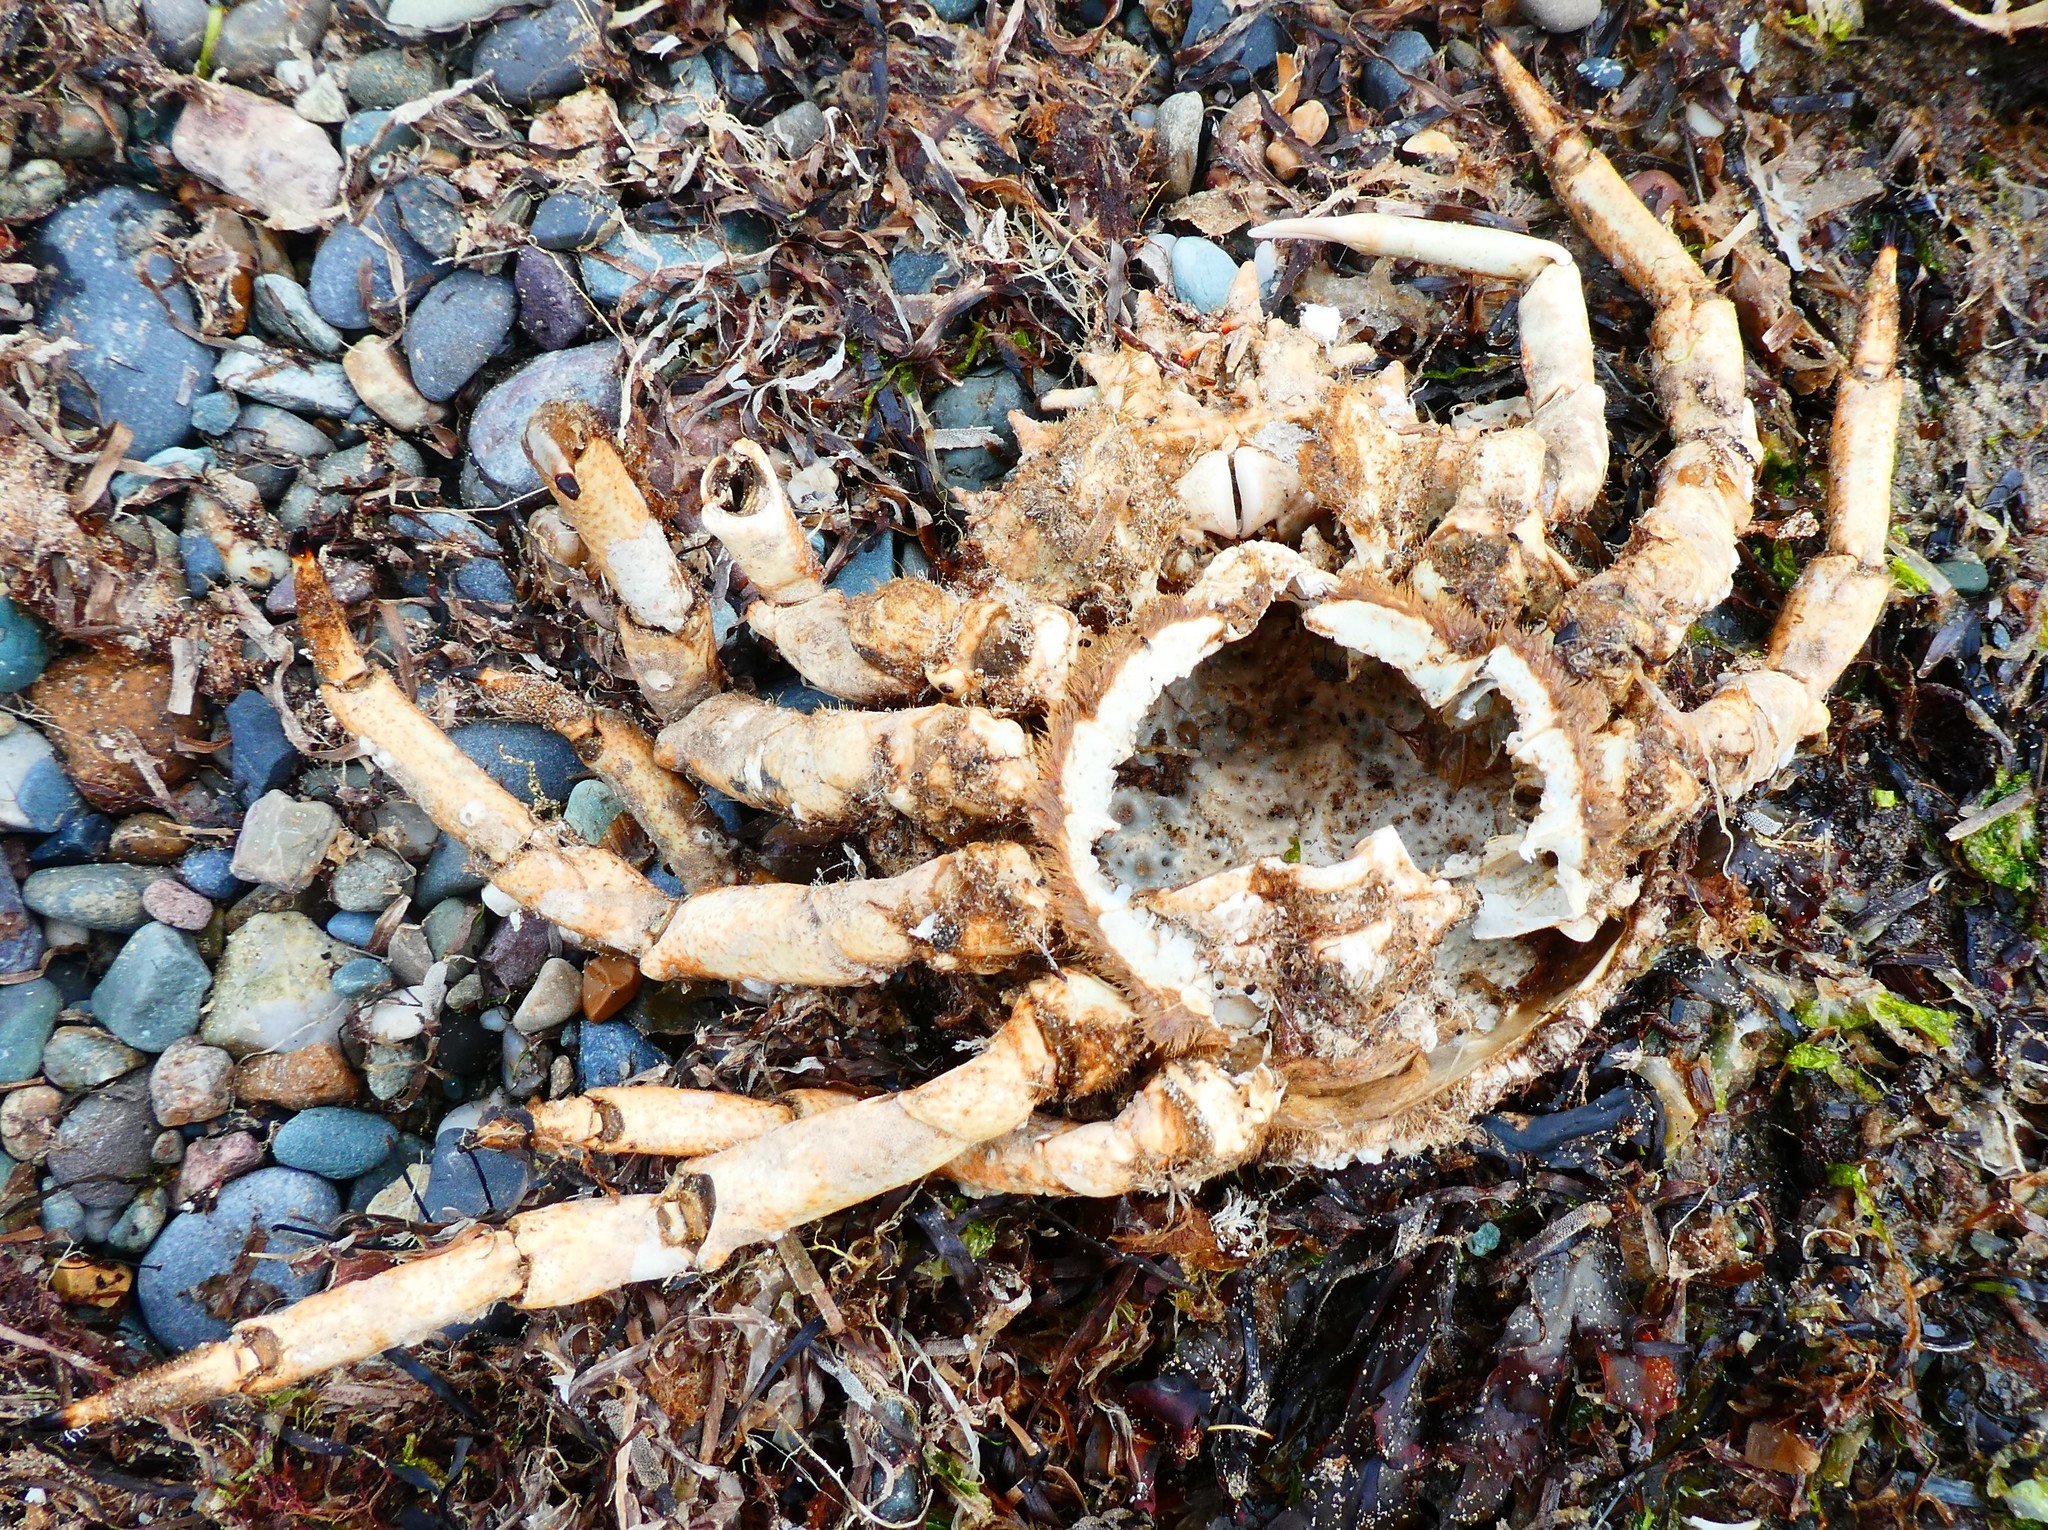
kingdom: Animalia
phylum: Arthropoda
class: Malacostraca
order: Decapoda
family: Majidae
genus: Maja
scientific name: Maja brachydactyla
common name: Common spider crab
